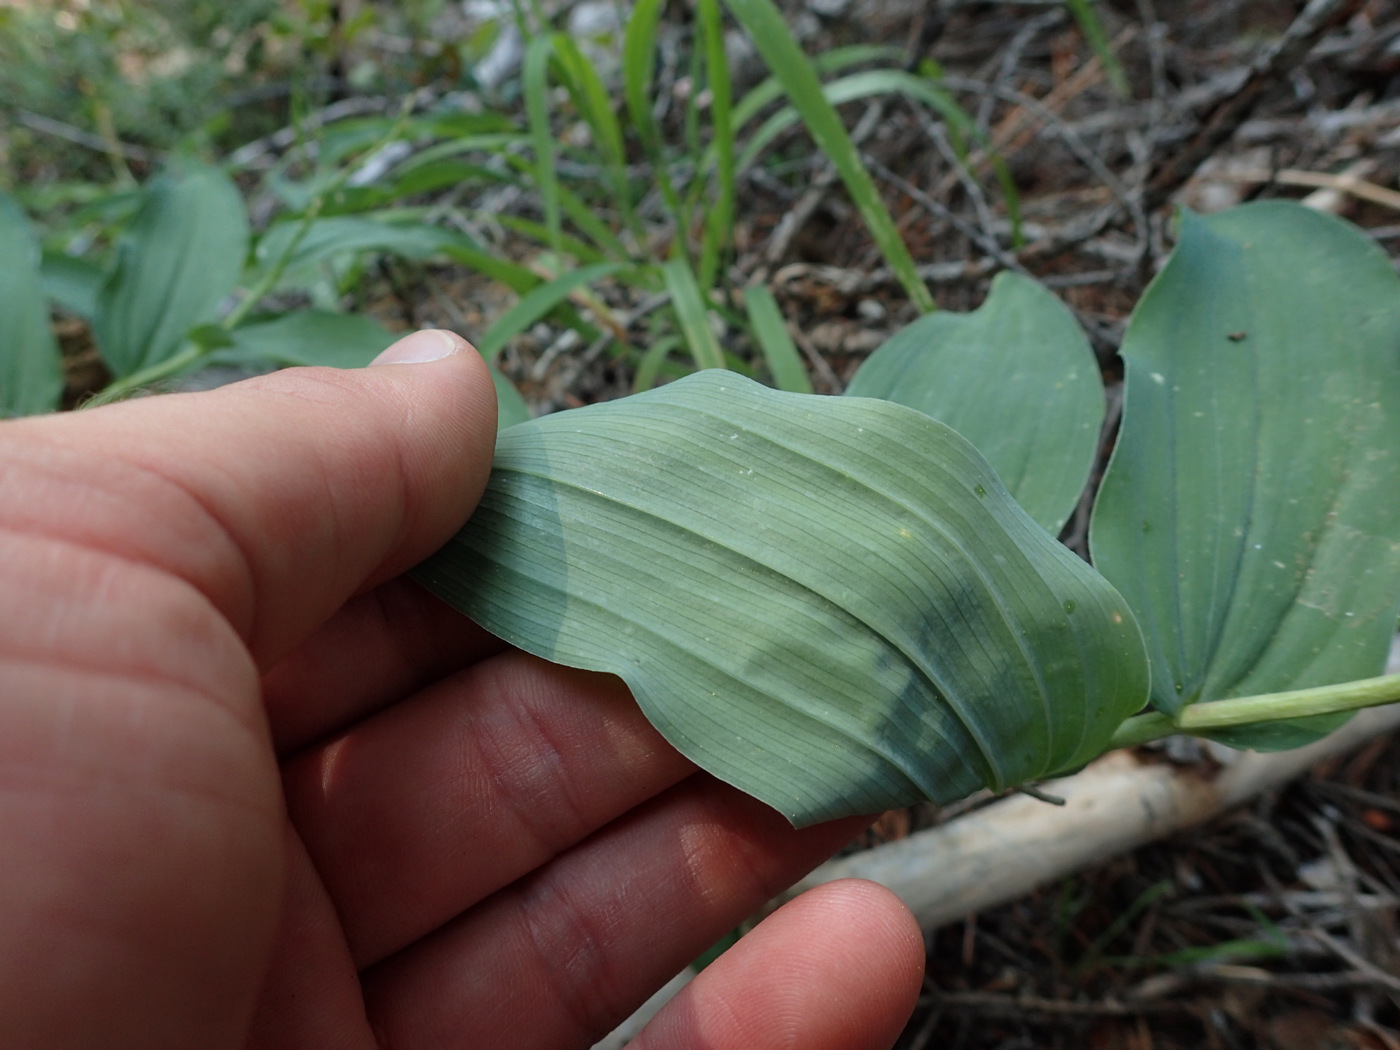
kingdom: Plantae
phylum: Tracheophyta
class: Liliopsida
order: Asparagales
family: Asparagaceae
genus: Maianthemum
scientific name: Maianthemum racemosum
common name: False spikenard
